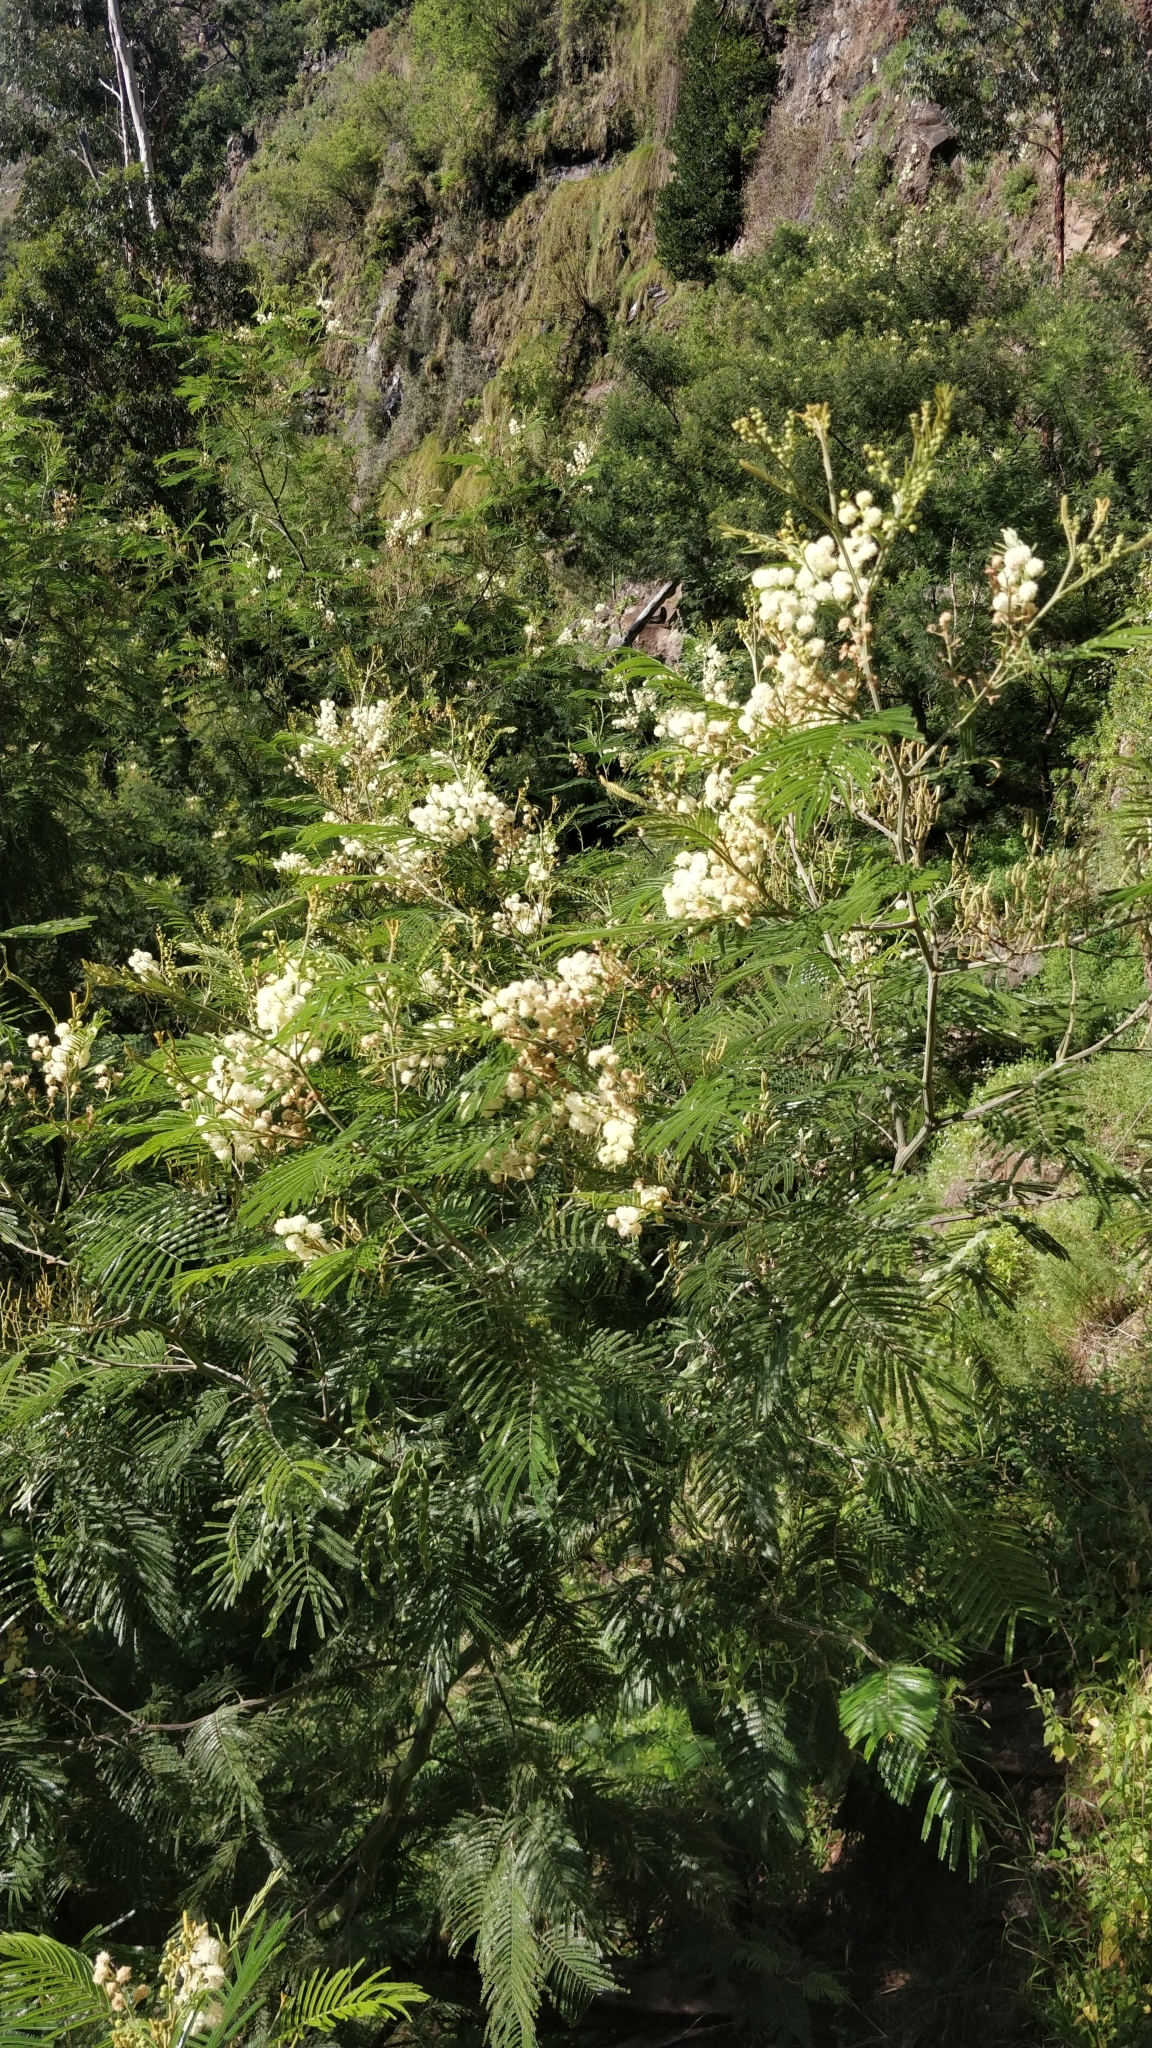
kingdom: Plantae
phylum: Tracheophyta
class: Magnoliopsida
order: Fabales
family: Fabaceae
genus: Acacia
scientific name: Acacia mearnsii
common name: Black wattle
